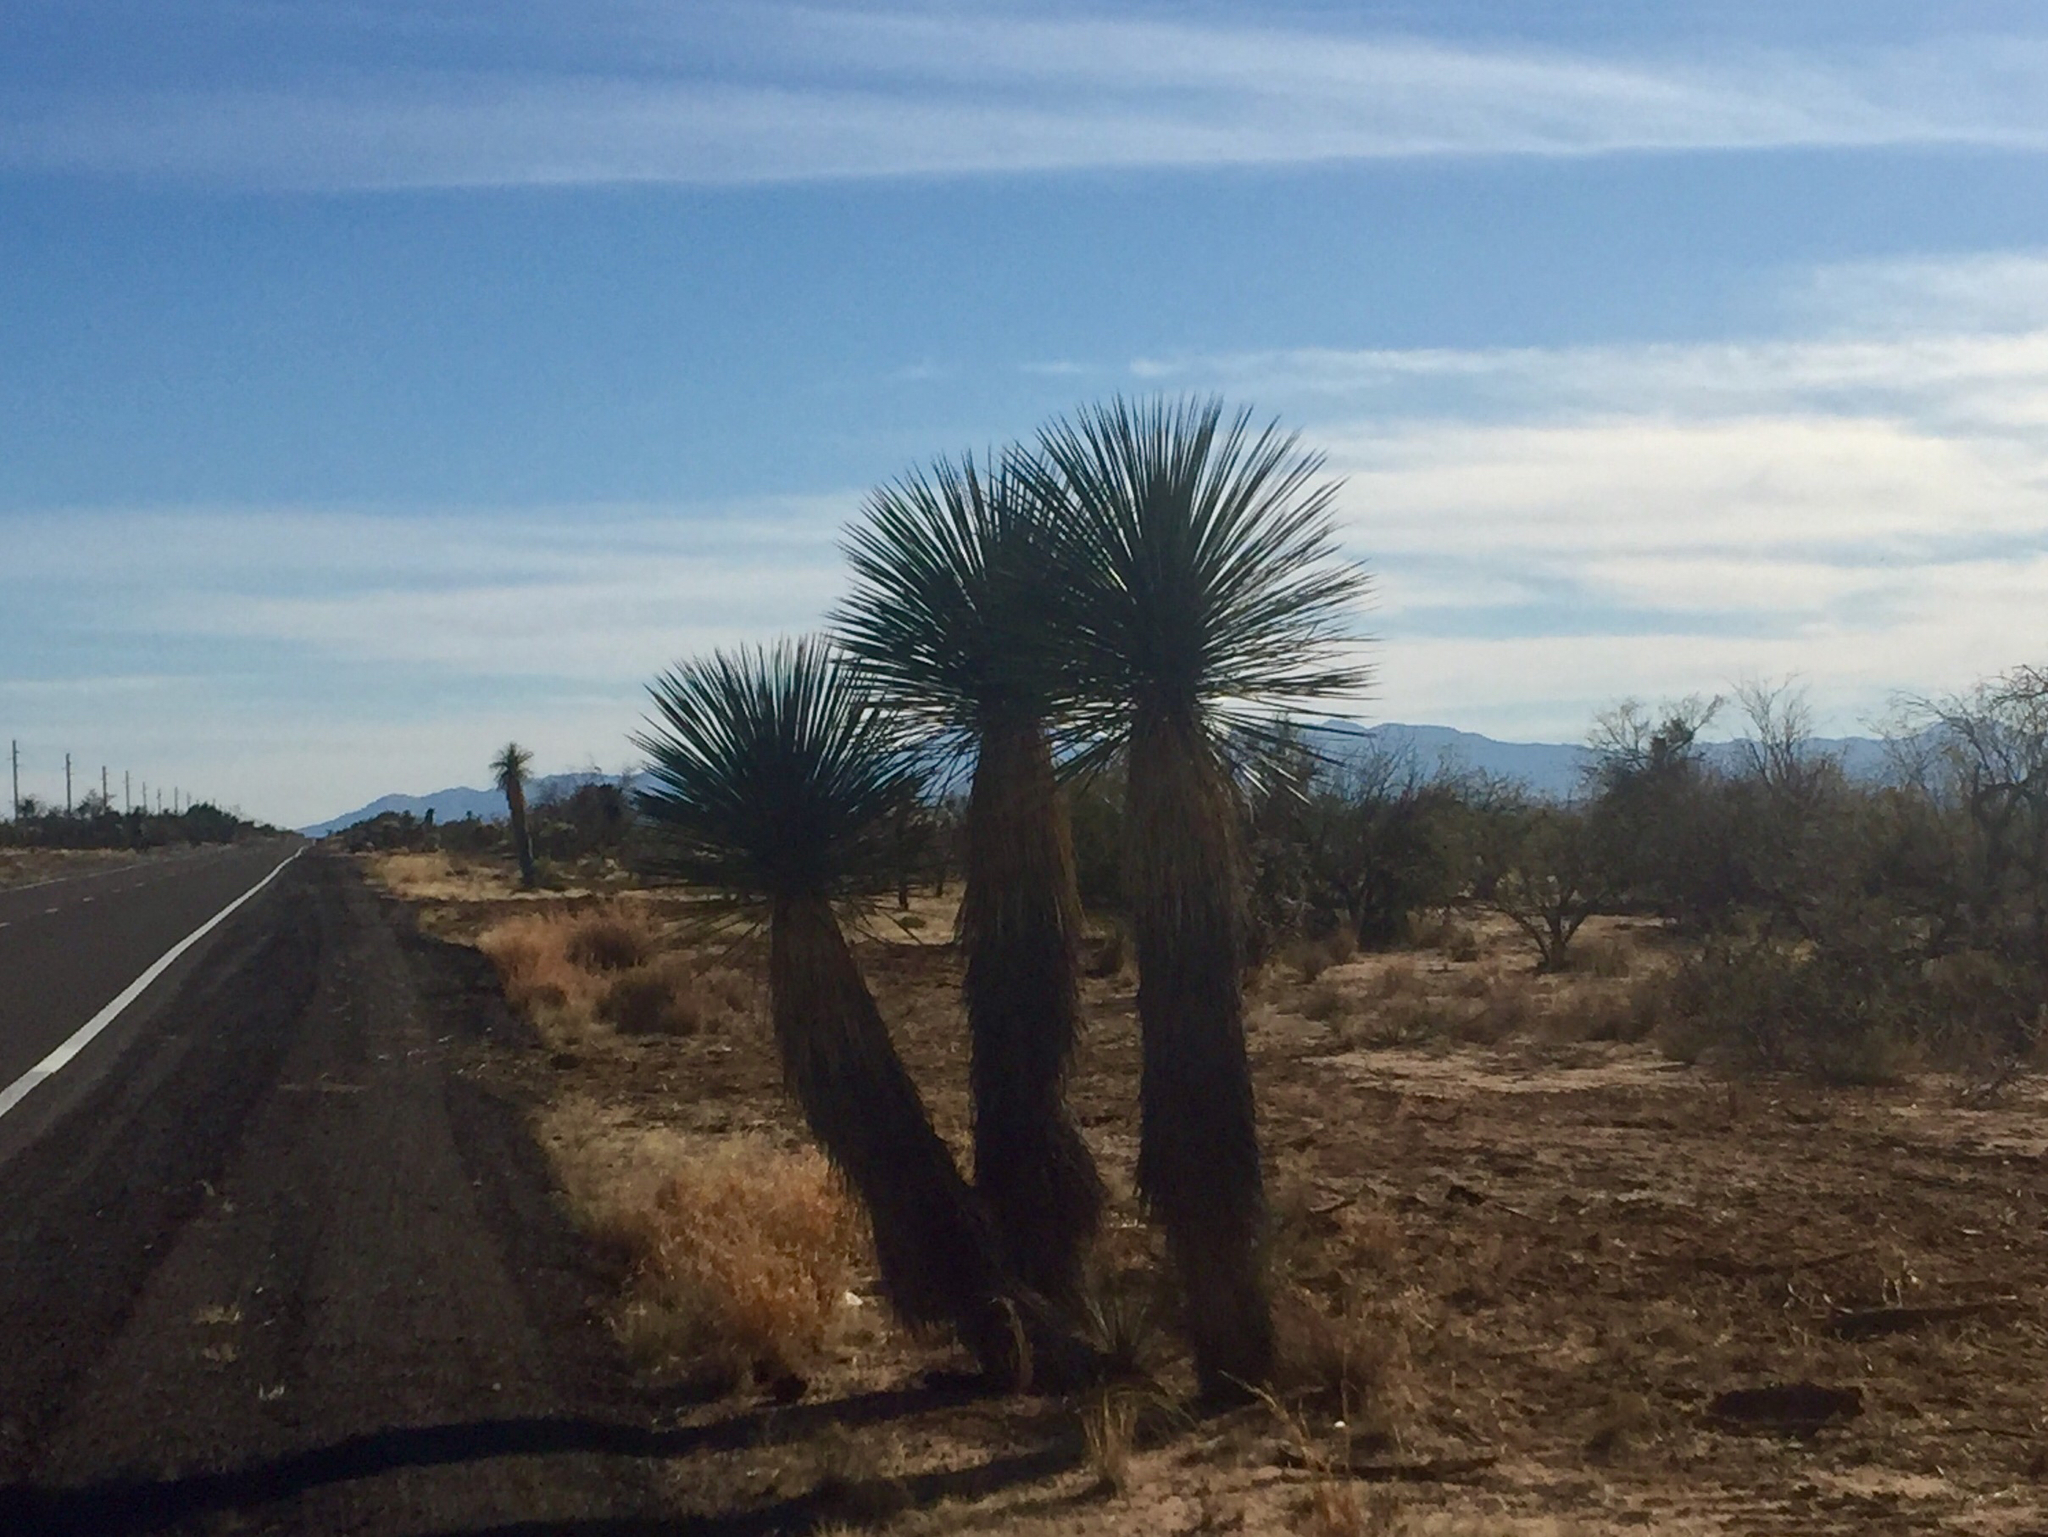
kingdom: Plantae
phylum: Tracheophyta
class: Liliopsida
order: Asparagales
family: Asparagaceae
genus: Yucca
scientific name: Yucca elata
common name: Palmella
